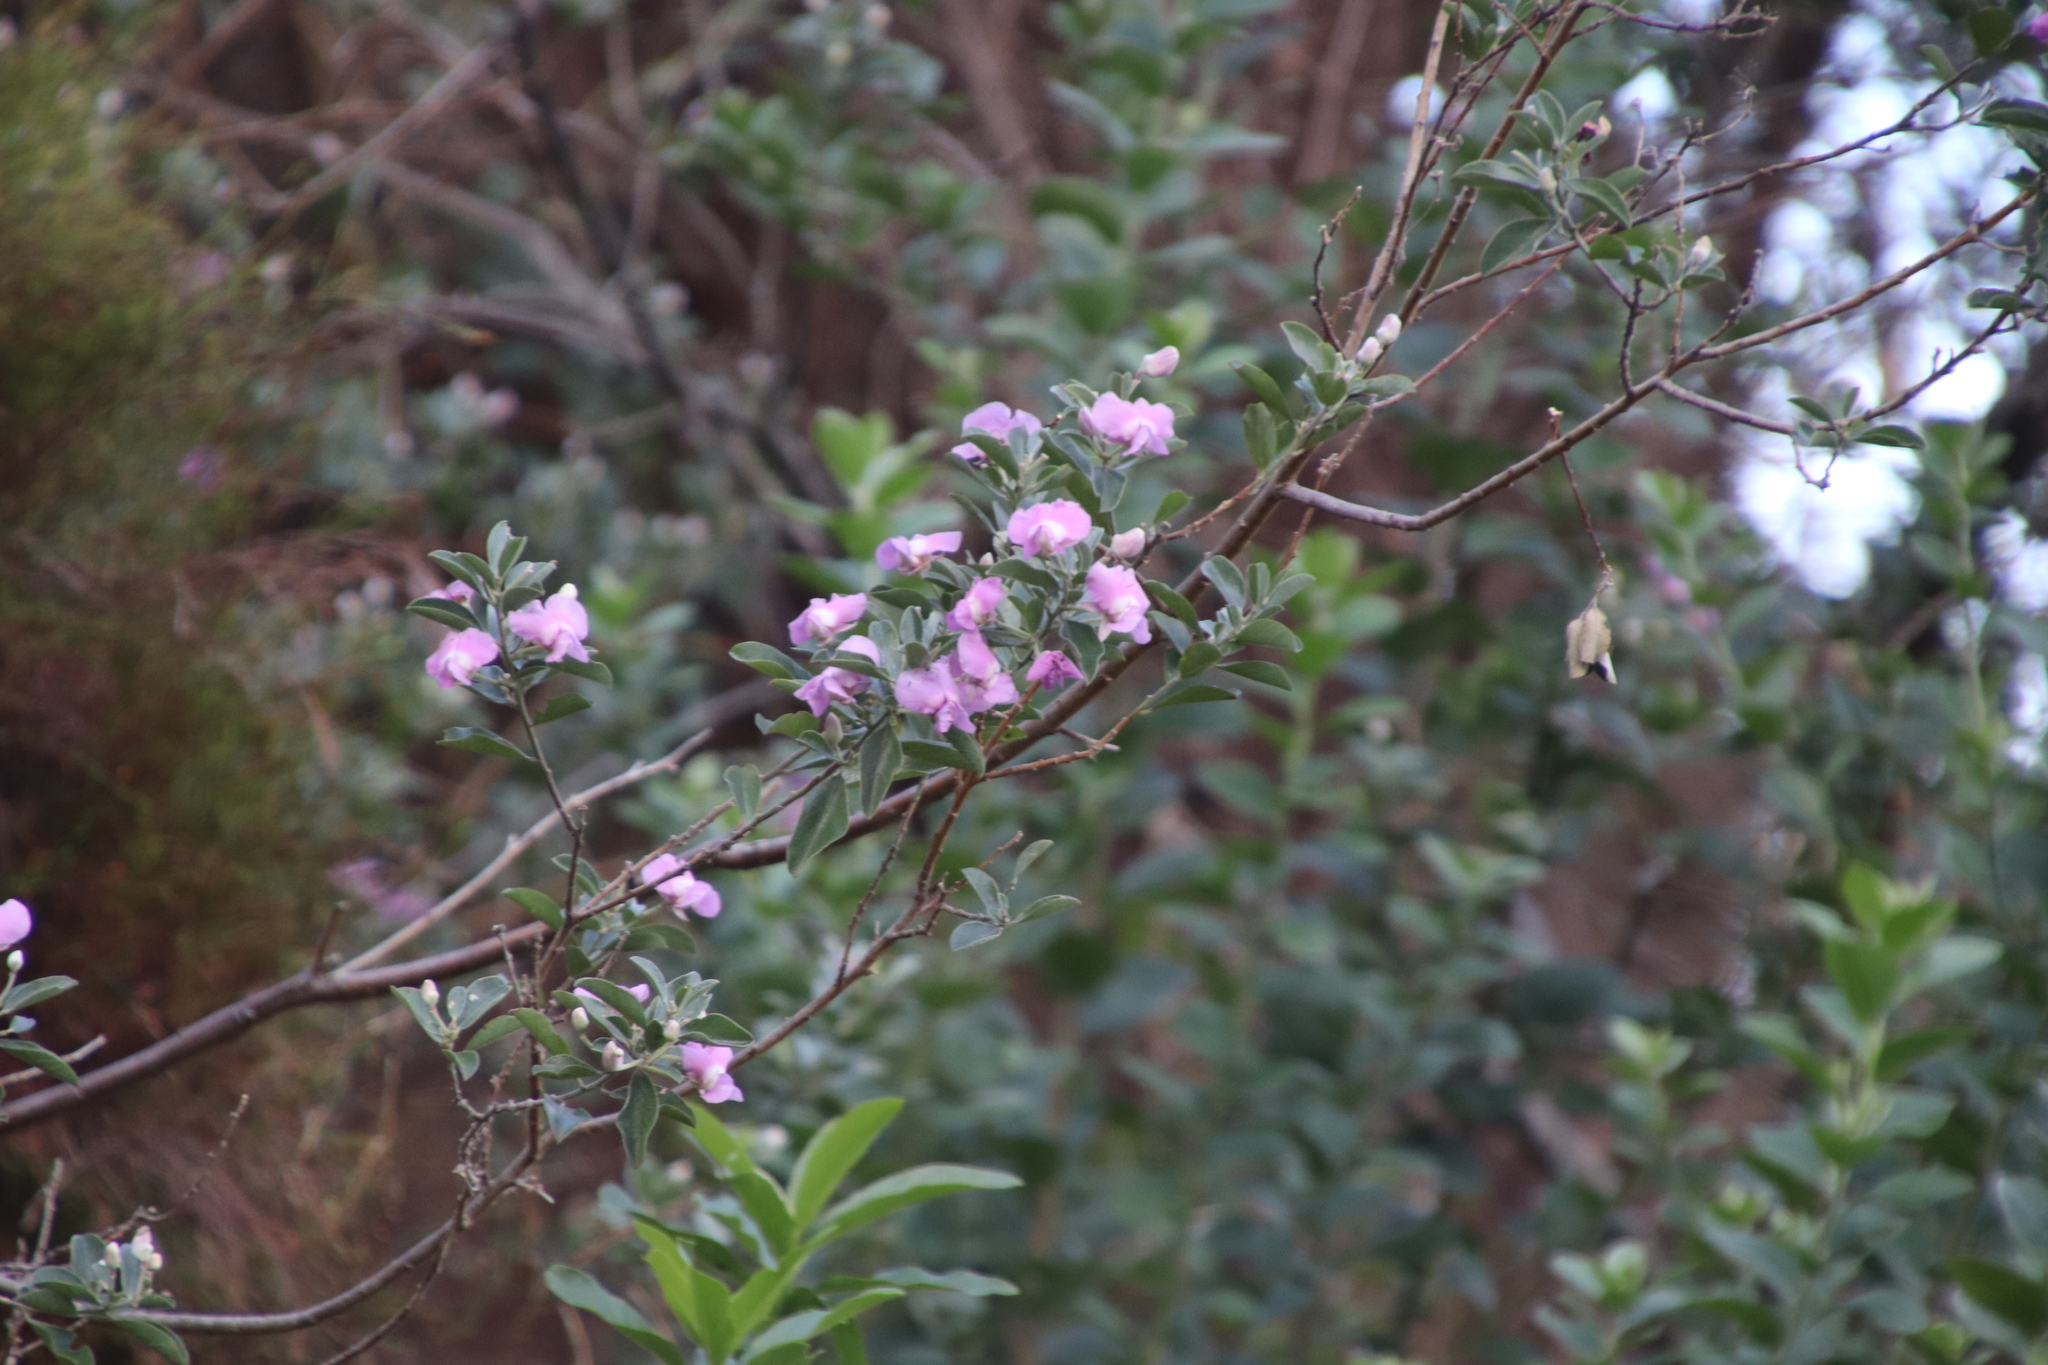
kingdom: Plantae
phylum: Tracheophyta
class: Magnoliopsida
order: Fabales
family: Fabaceae
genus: Podalyria
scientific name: Podalyria calyptrata
